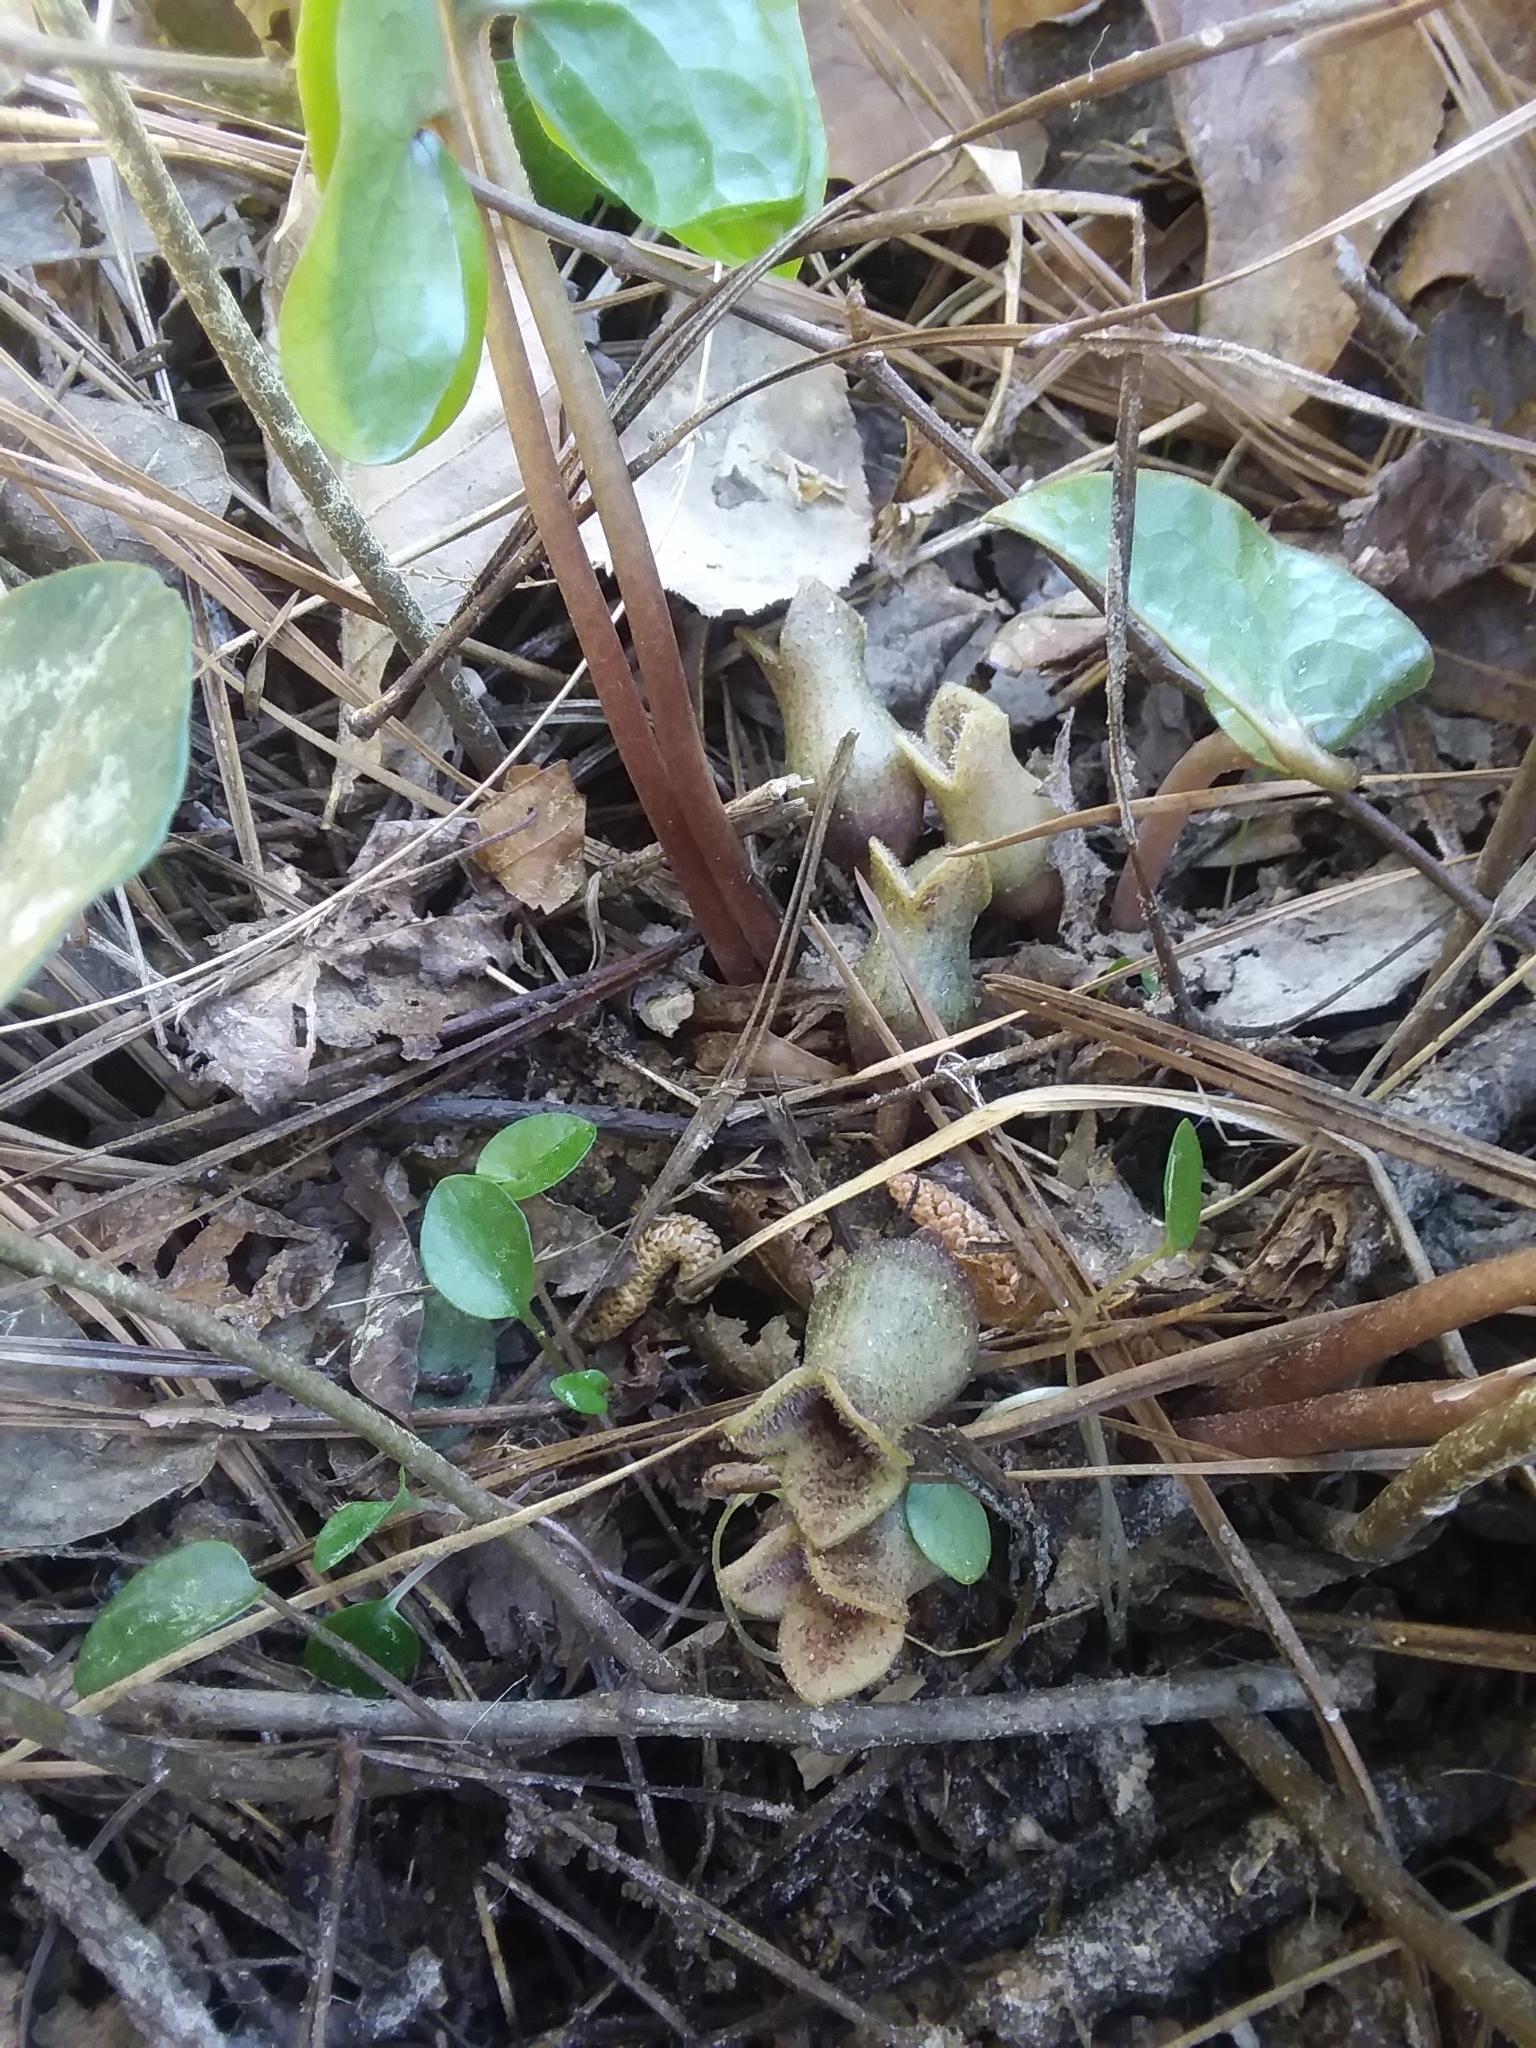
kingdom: Plantae
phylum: Tracheophyta
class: Magnoliopsida
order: Piperales
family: Aristolochiaceae
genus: Hexastylis
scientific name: Hexastylis arifolia
